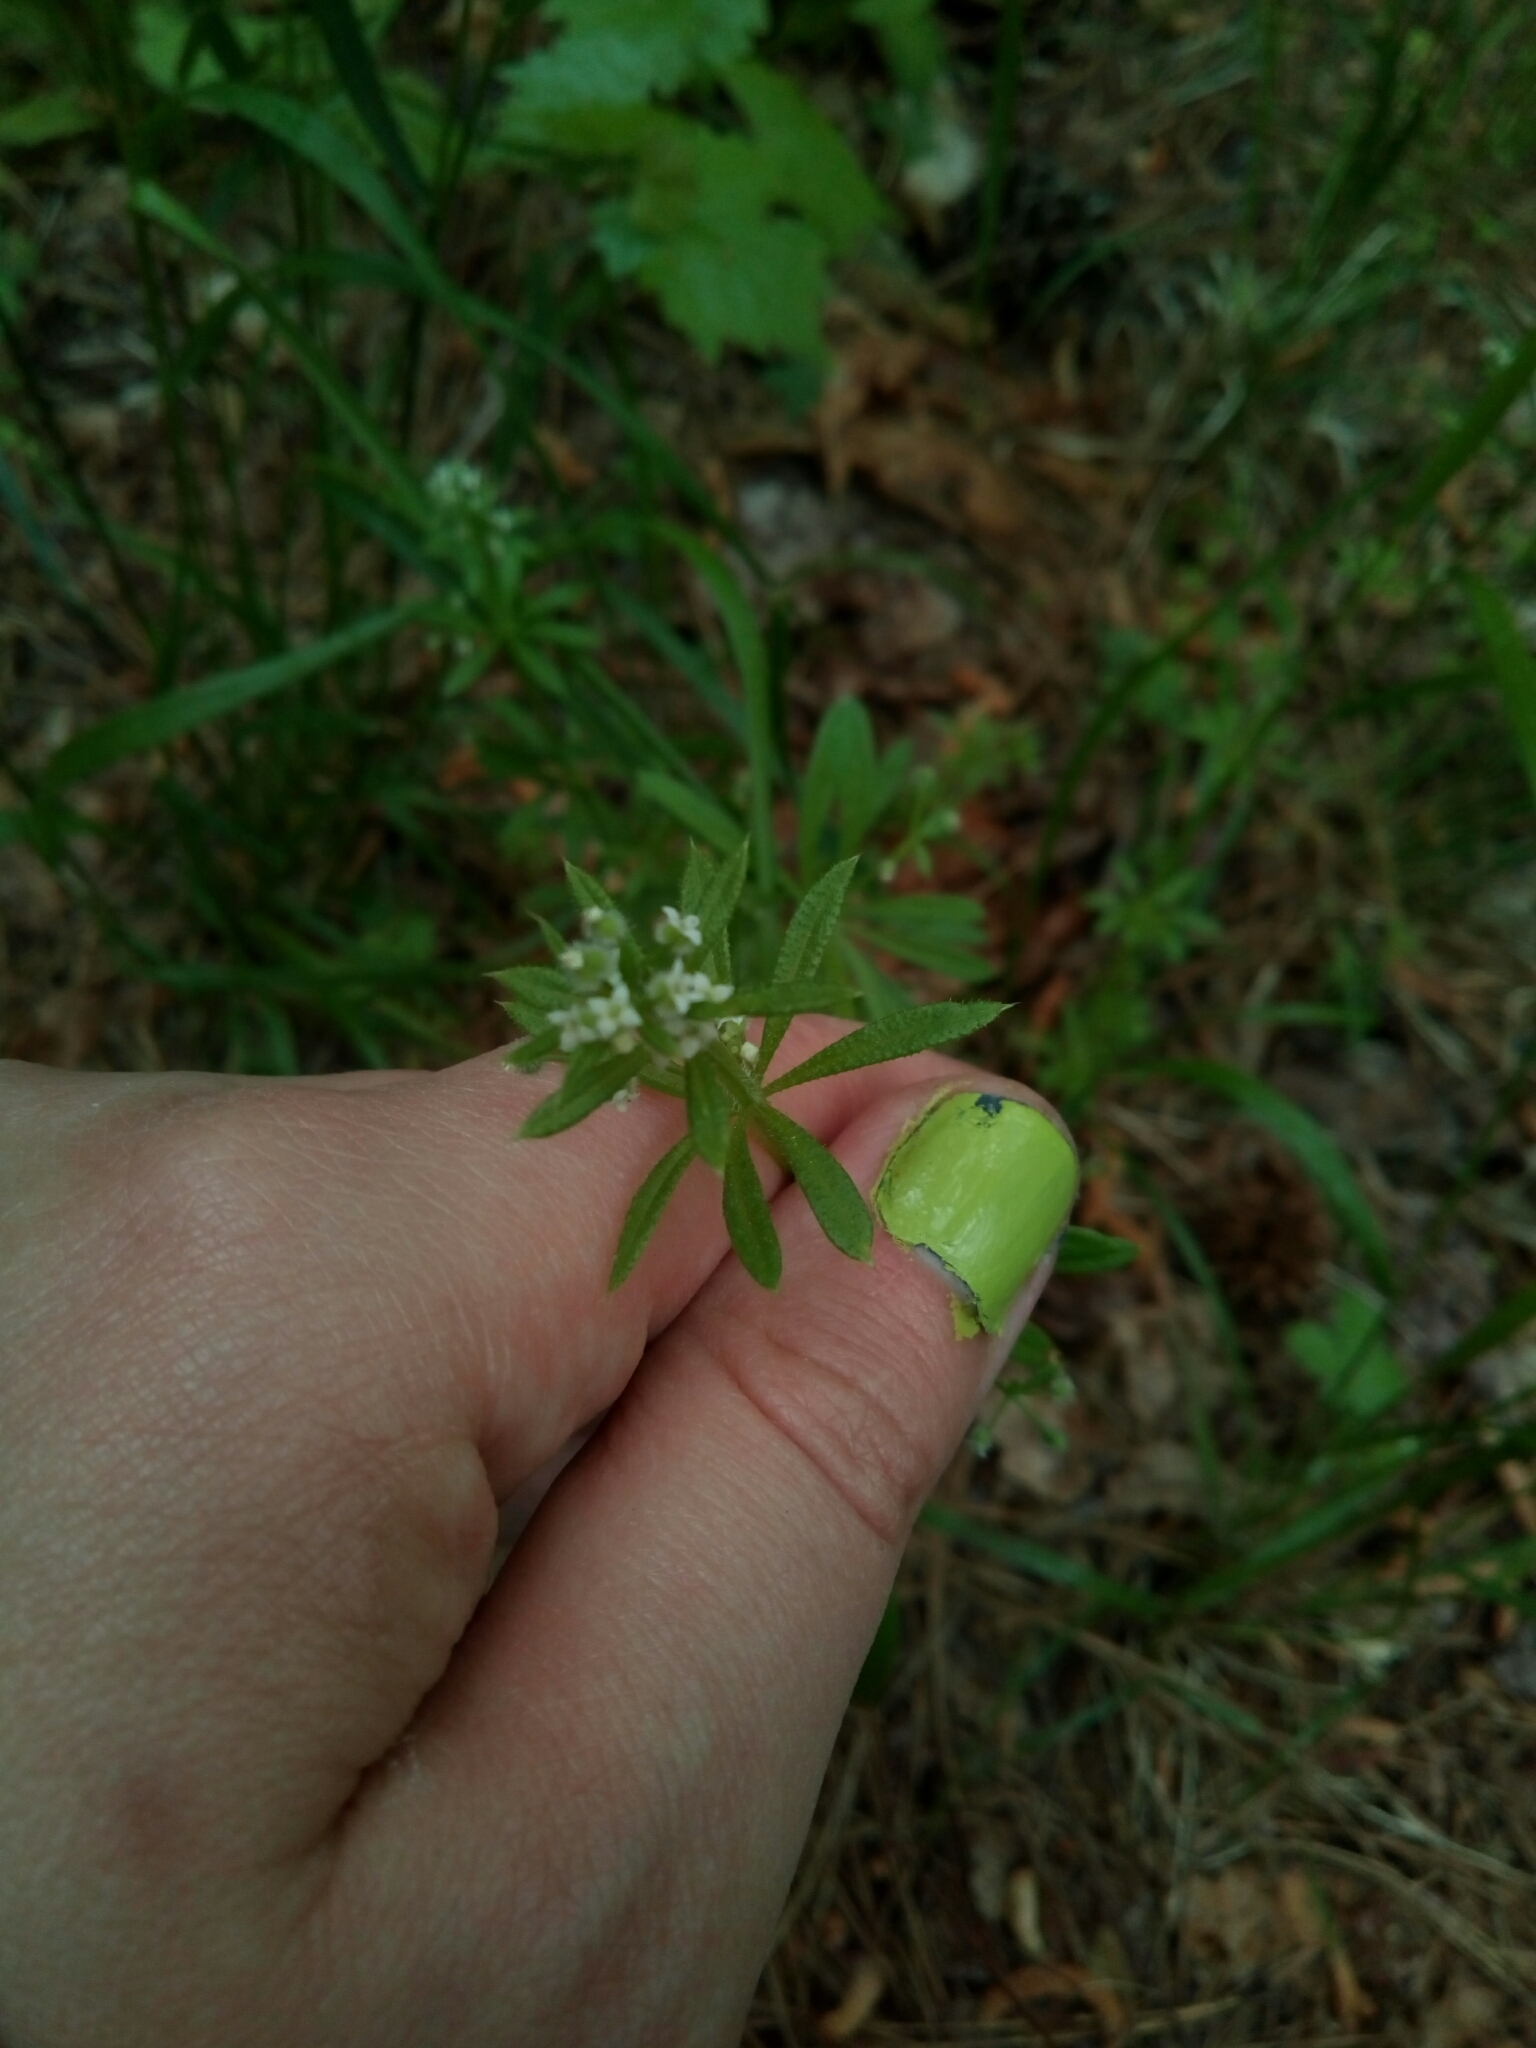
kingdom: Plantae
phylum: Tracheophyta
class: Magnoliopsida
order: Gentianales
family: Rubiaceae
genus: Galium
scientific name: Galium aparine
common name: Cleavers
